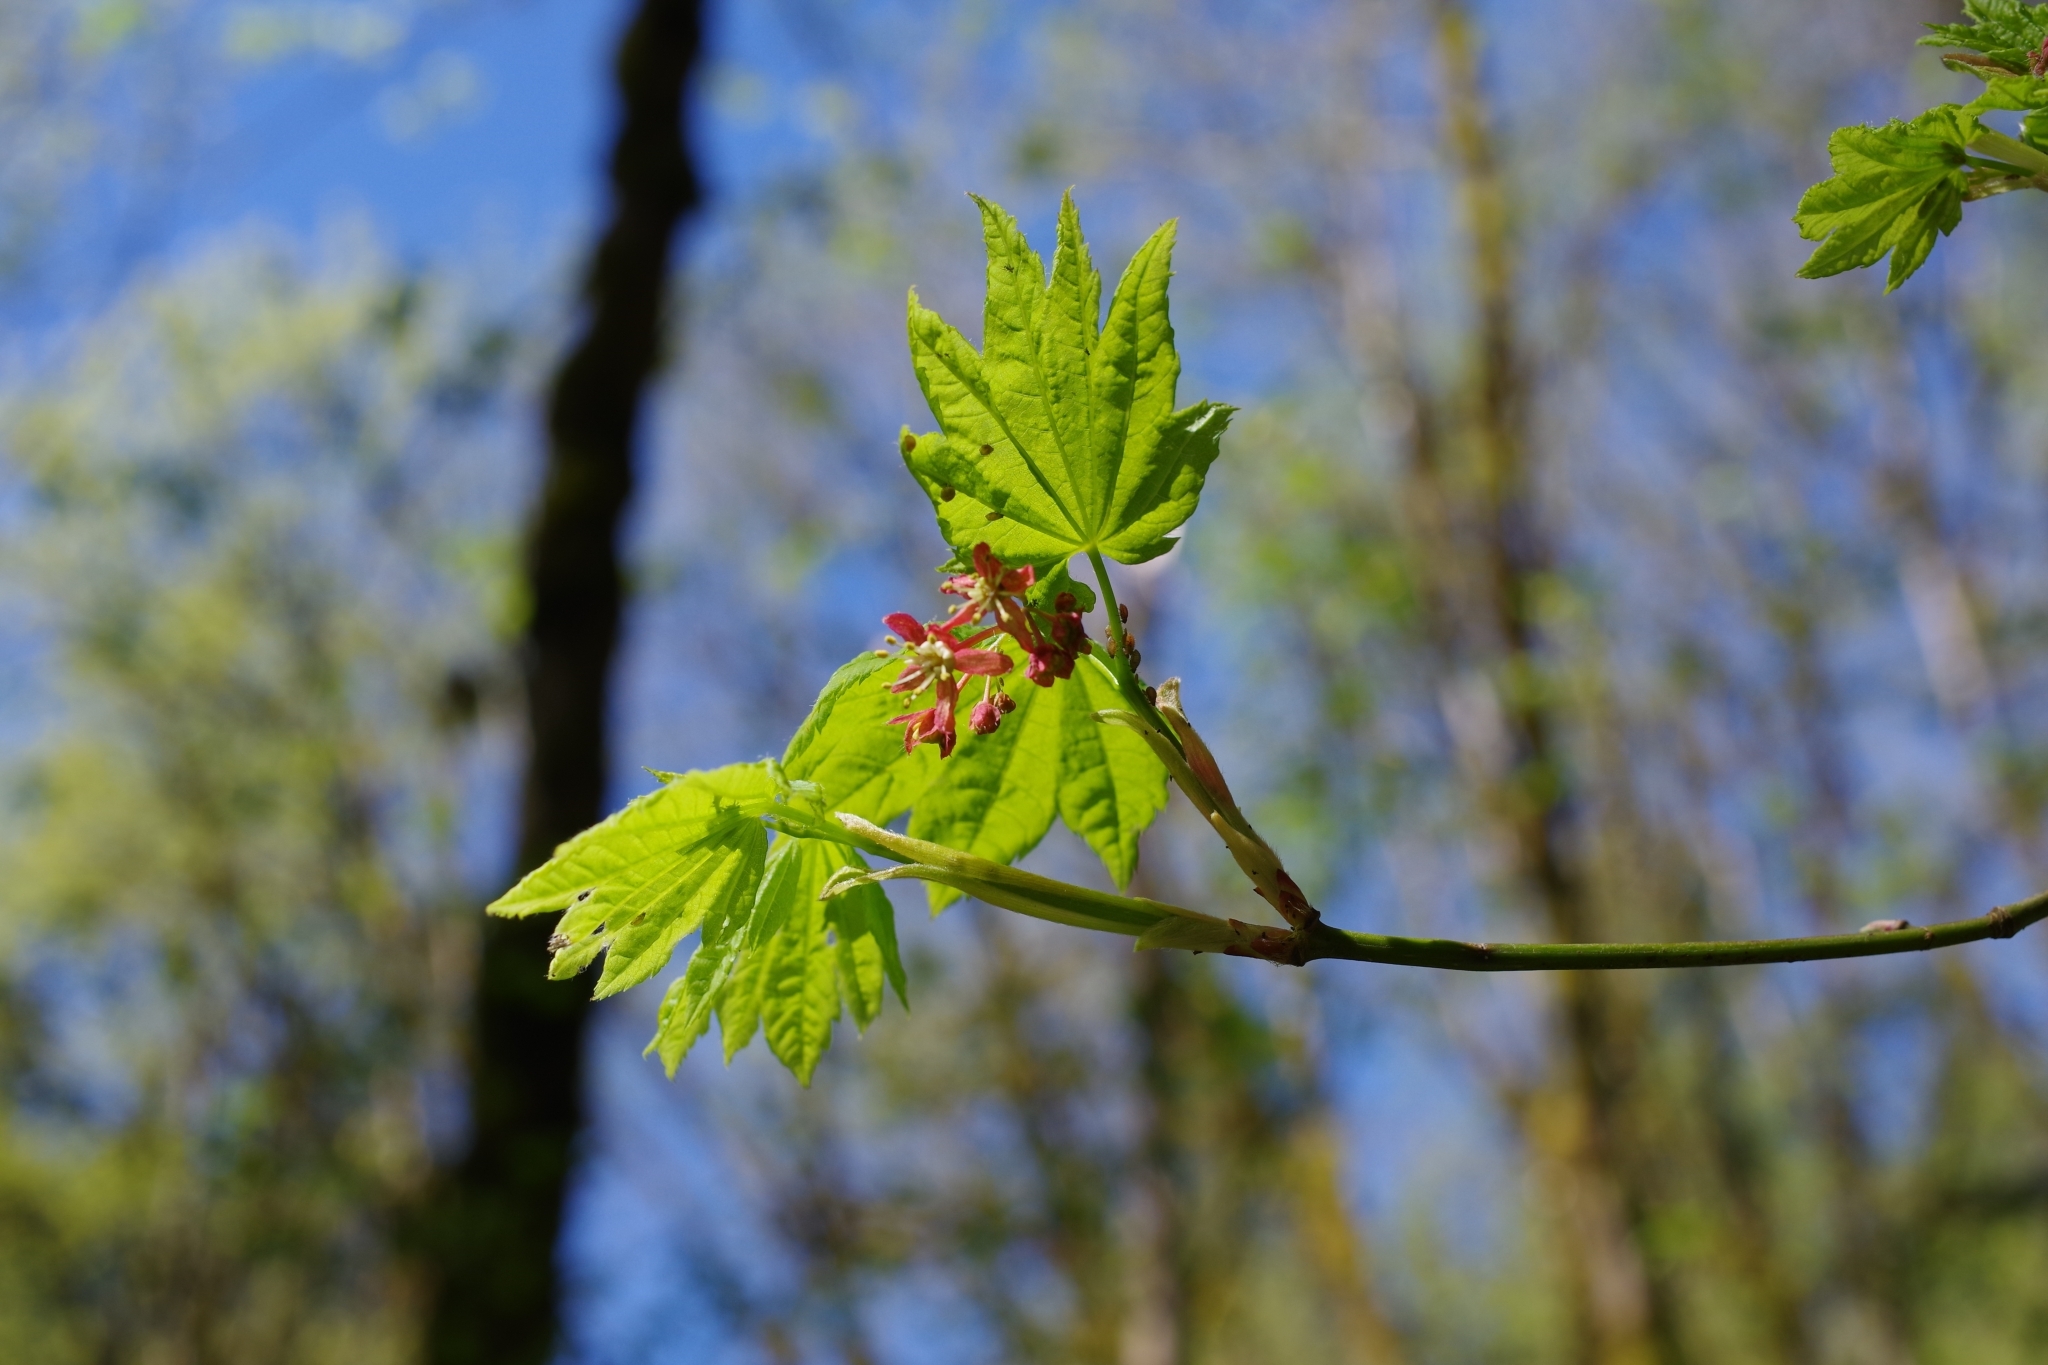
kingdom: Plantae
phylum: Tracheophyta
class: Magnoliopsida
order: Sapindales
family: Sapindaceae
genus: Acer
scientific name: Acer circinatum
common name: Vine maple
